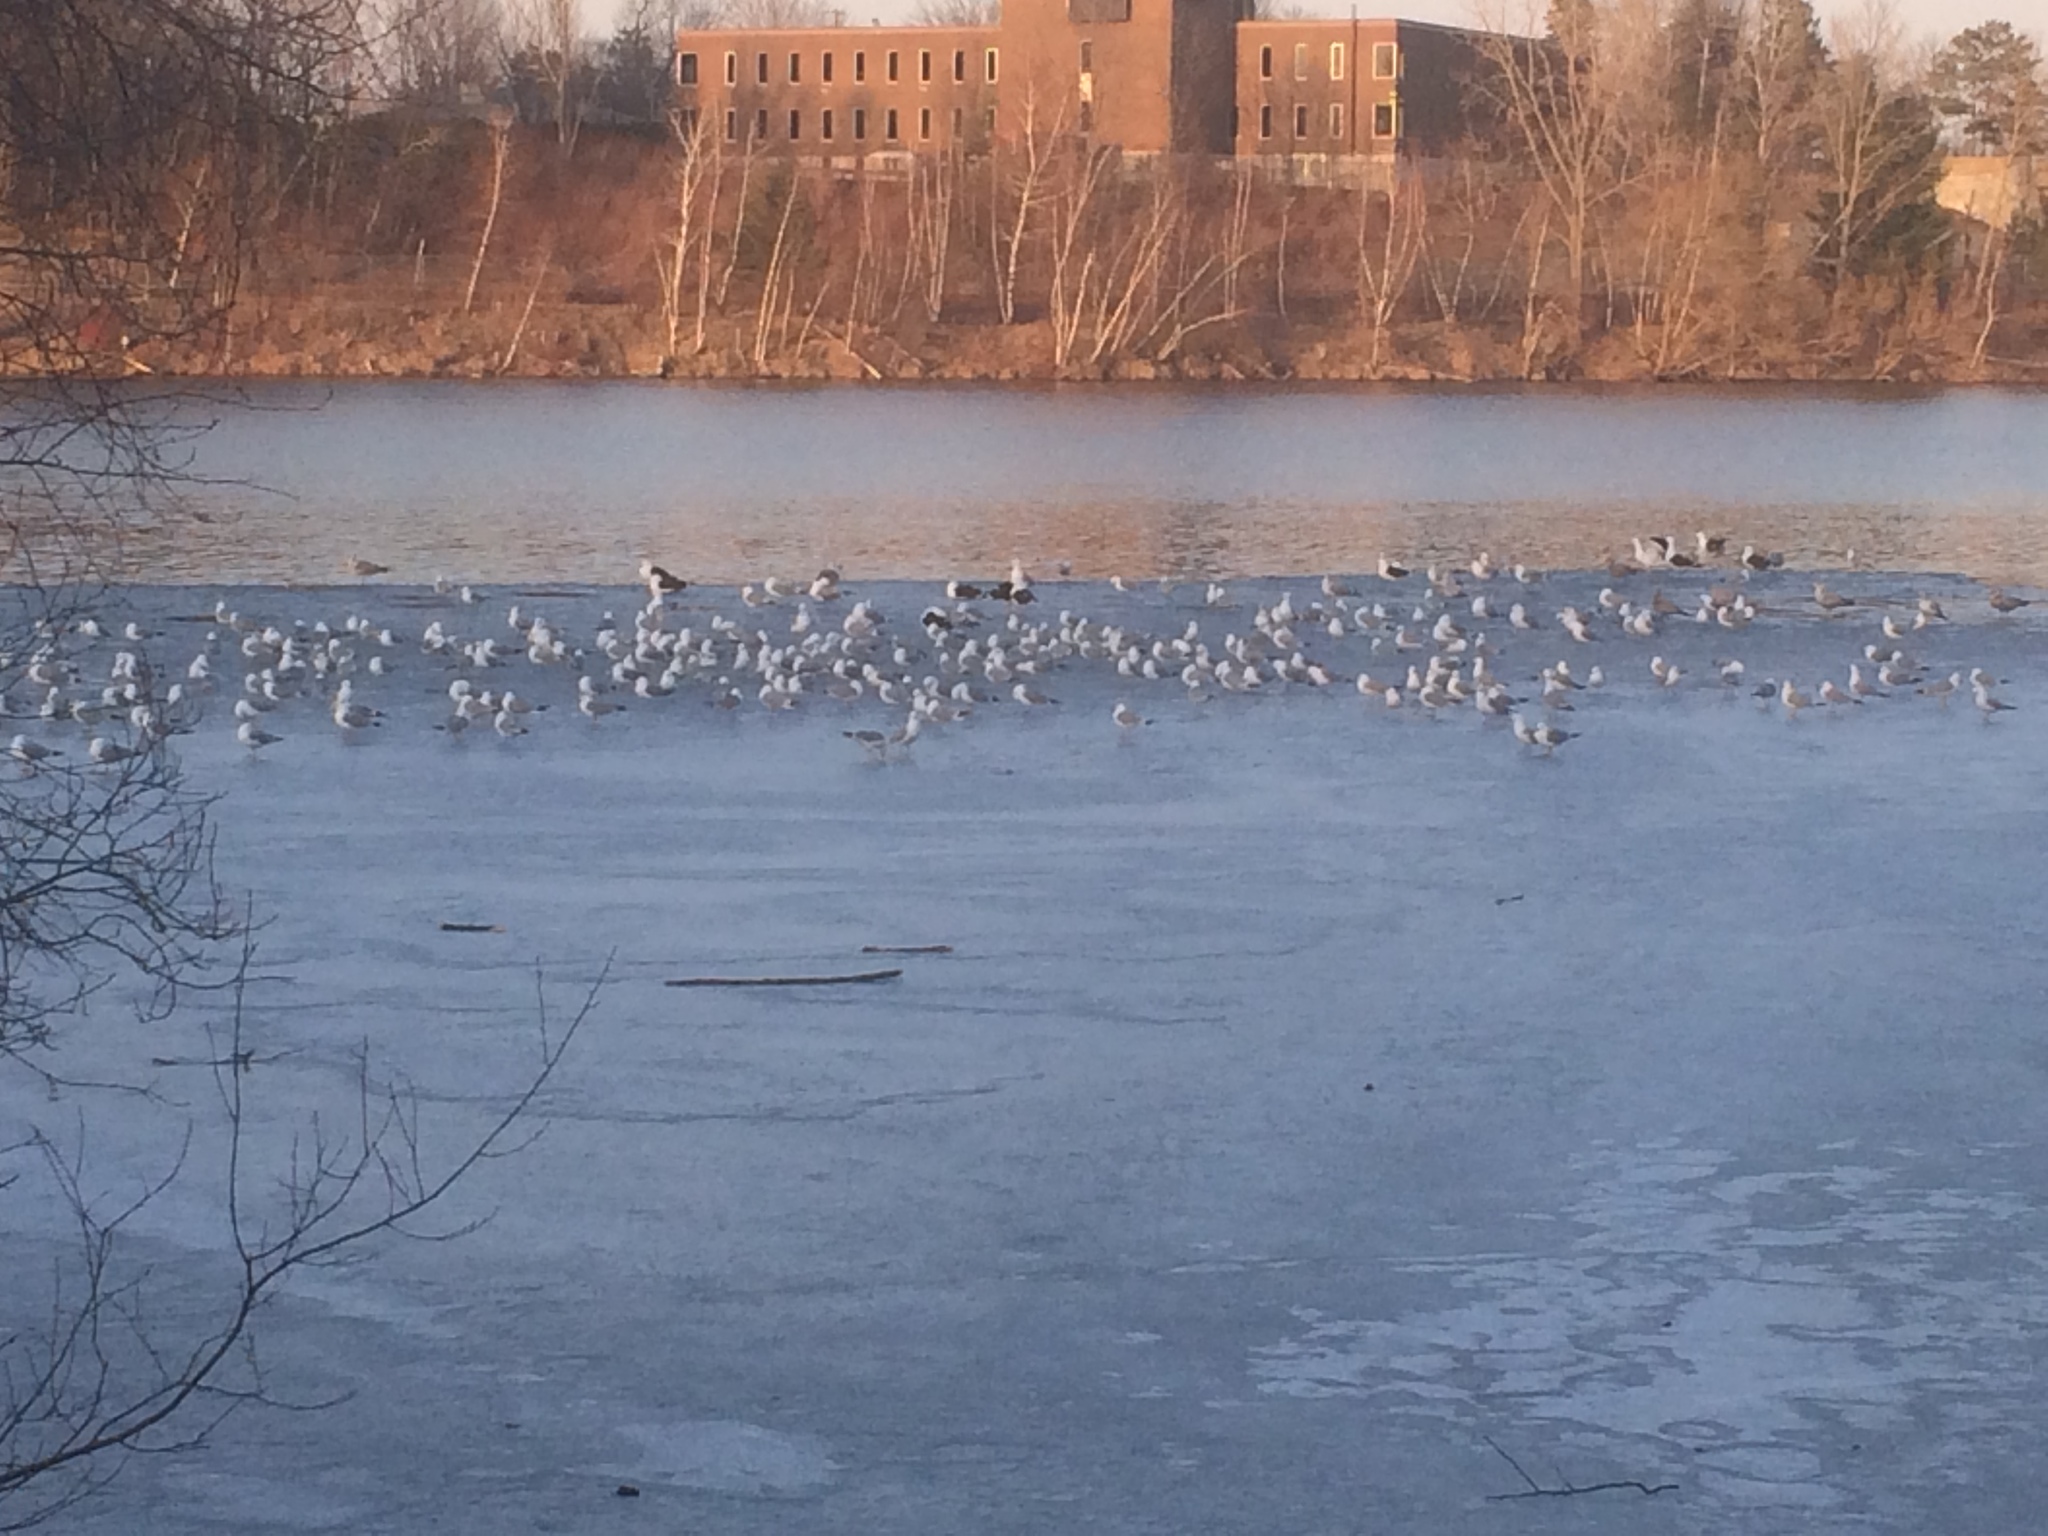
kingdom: Animalia
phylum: Chordata
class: Aves
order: Charadriiformes
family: Laridae
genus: Larus
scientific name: Larus marinus
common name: Great black-backed gull
